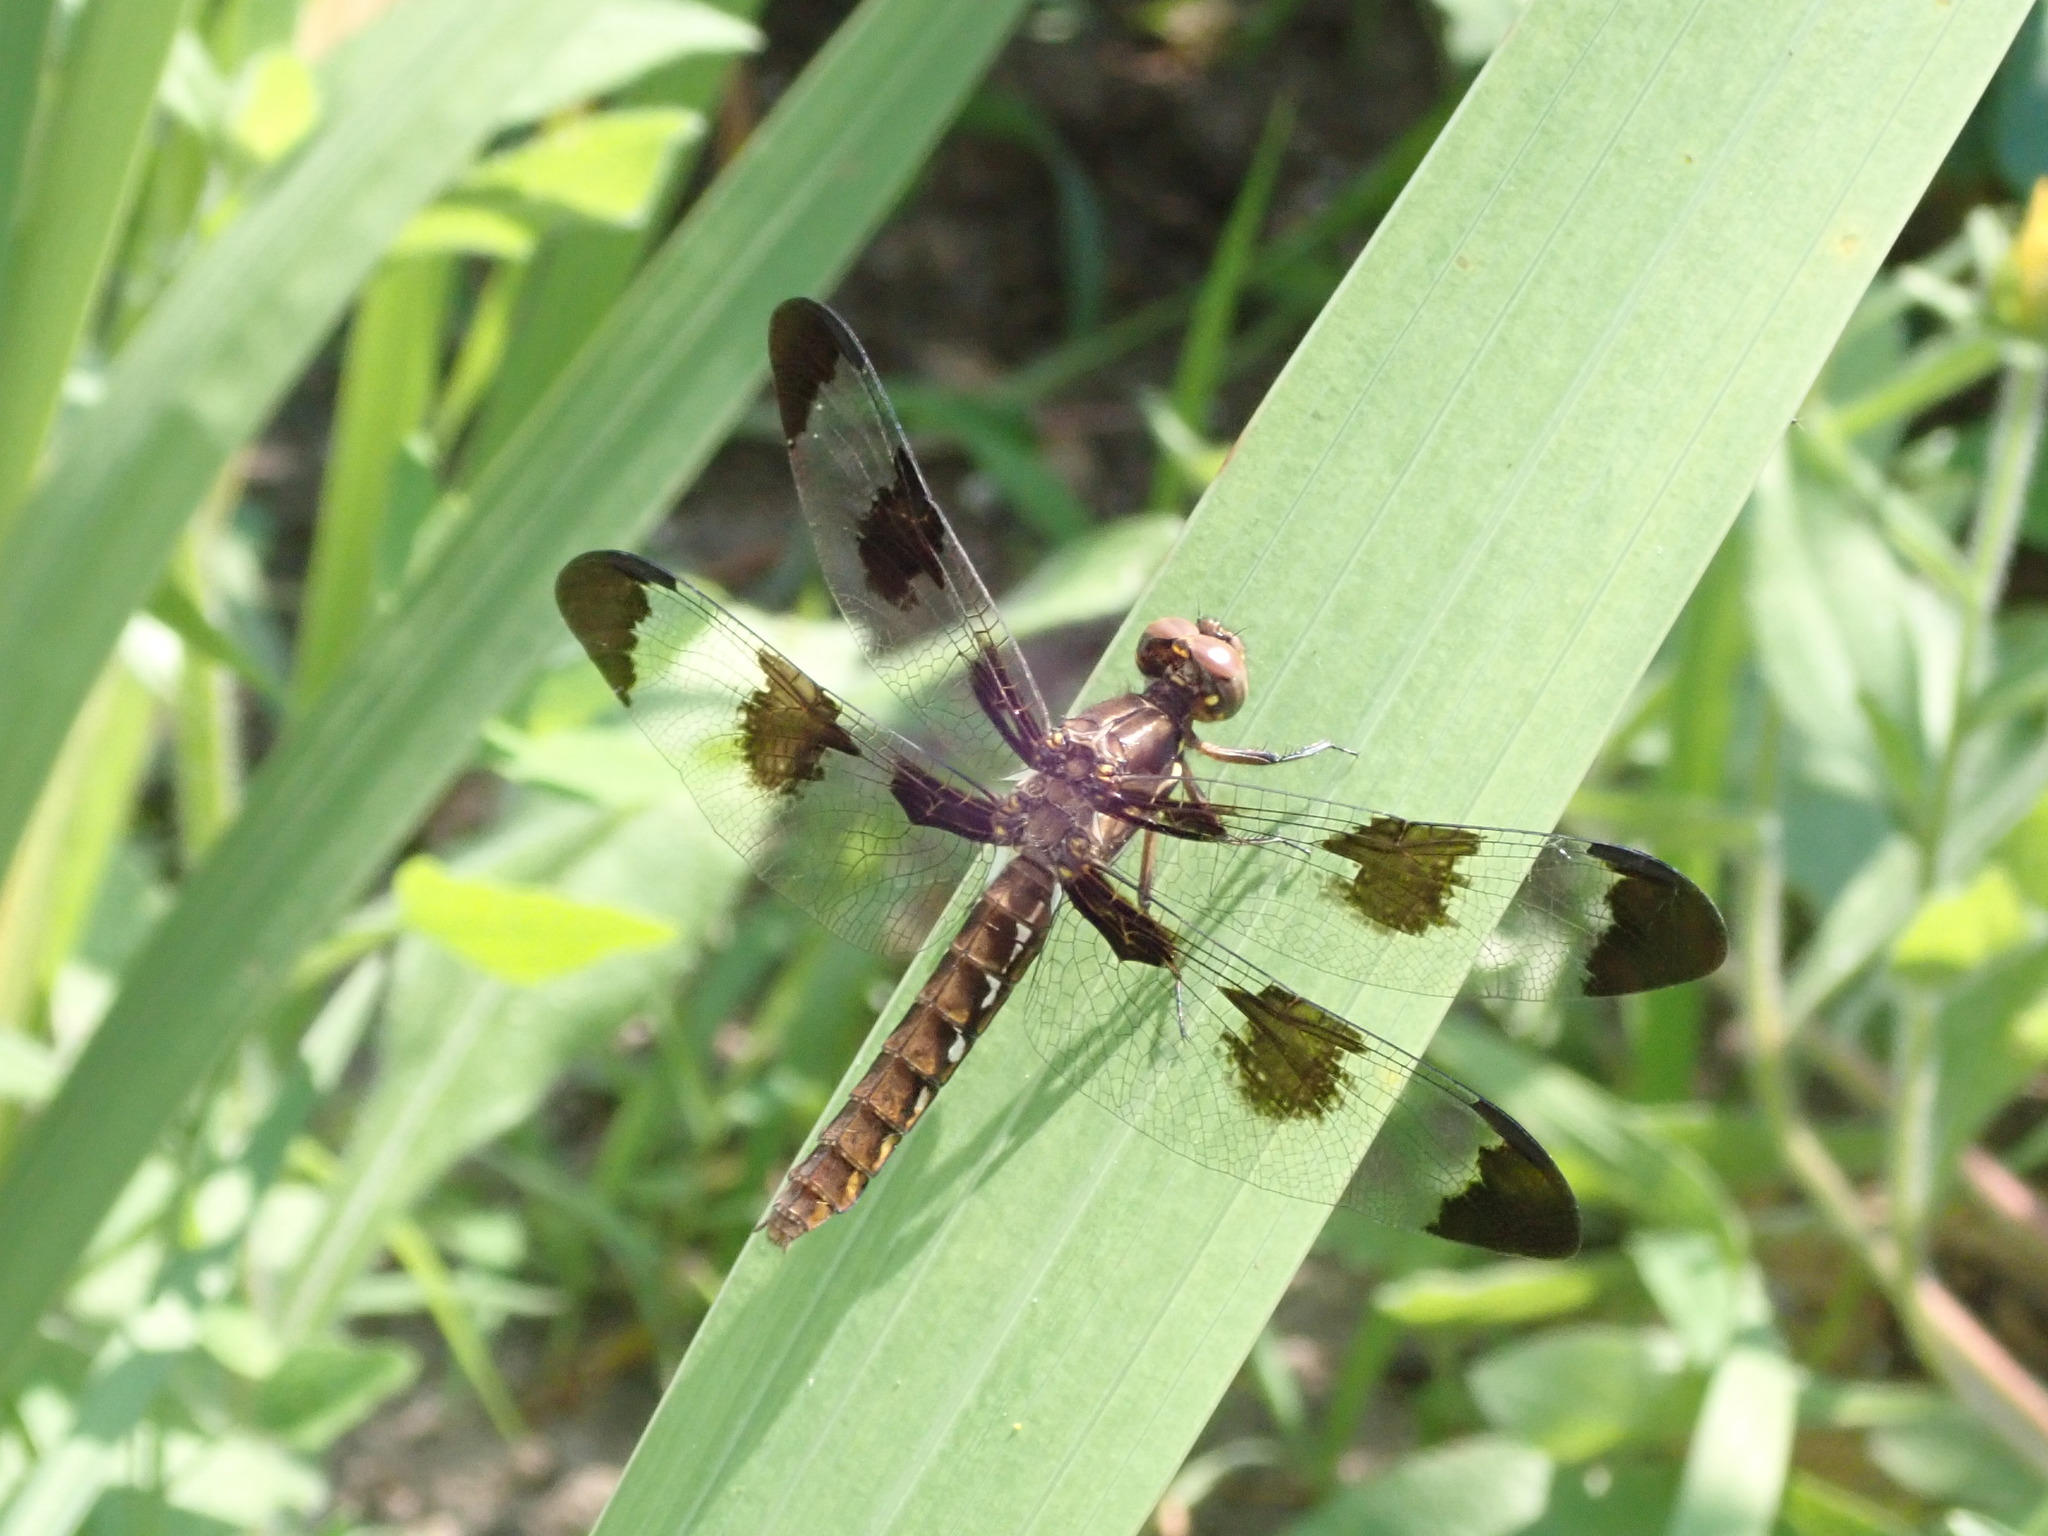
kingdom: Animalia
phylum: Arthropoda
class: Insecta
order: Odonata
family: Libellulidae
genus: Plathemis
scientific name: Plathemis lydia
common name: Common whitetail
